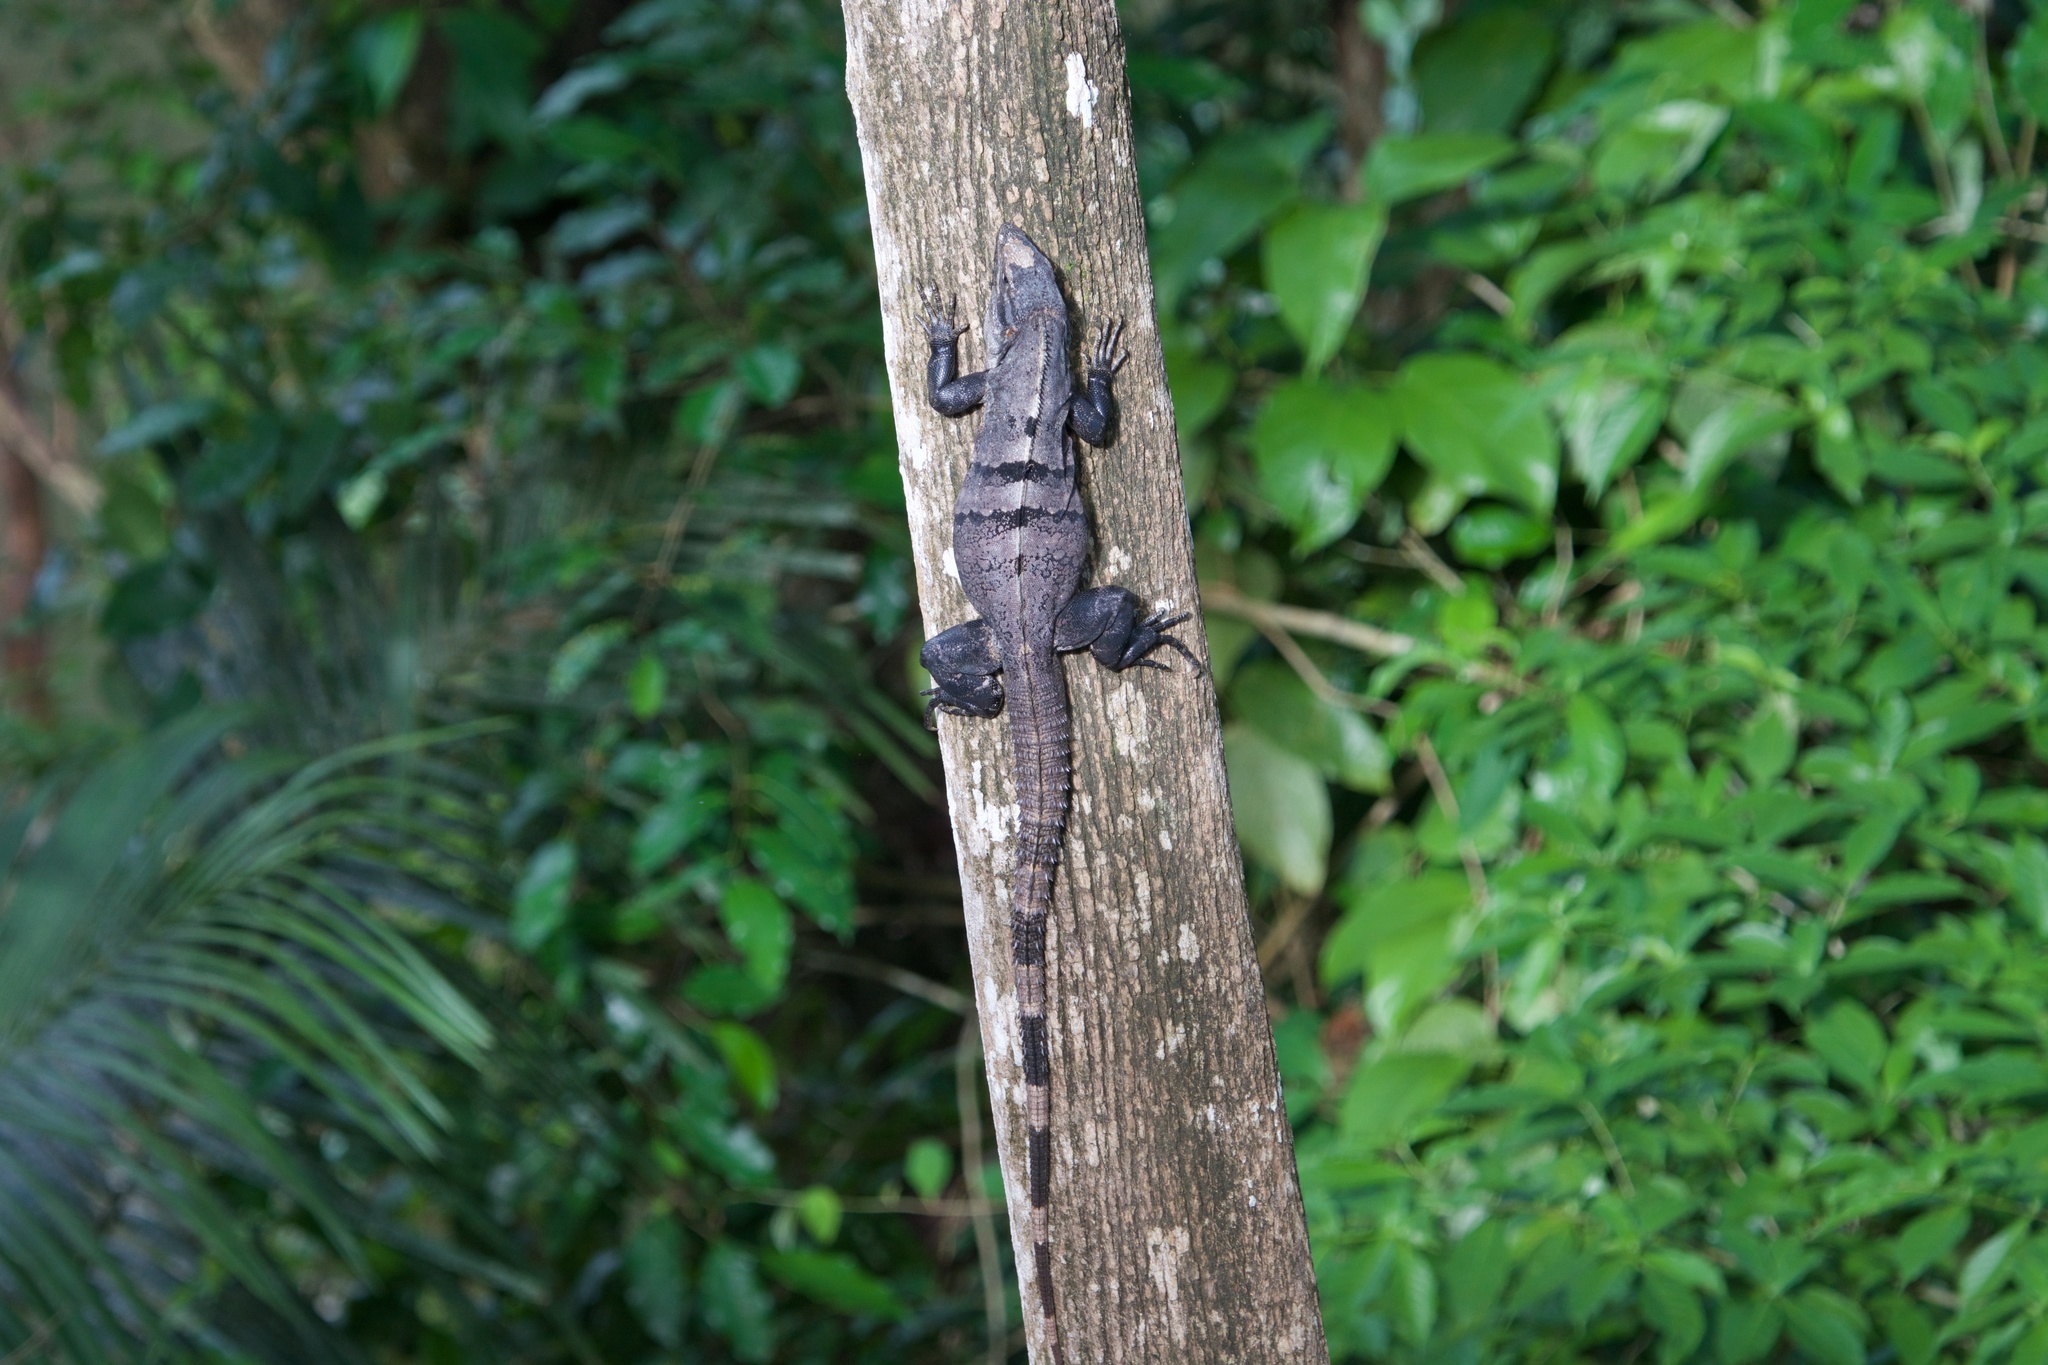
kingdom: Animalia
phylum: Chordata
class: Squamata
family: Iguanidae
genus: Ctenosaura
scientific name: Ctenosaura similis
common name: Black spiny-tailed iguana
